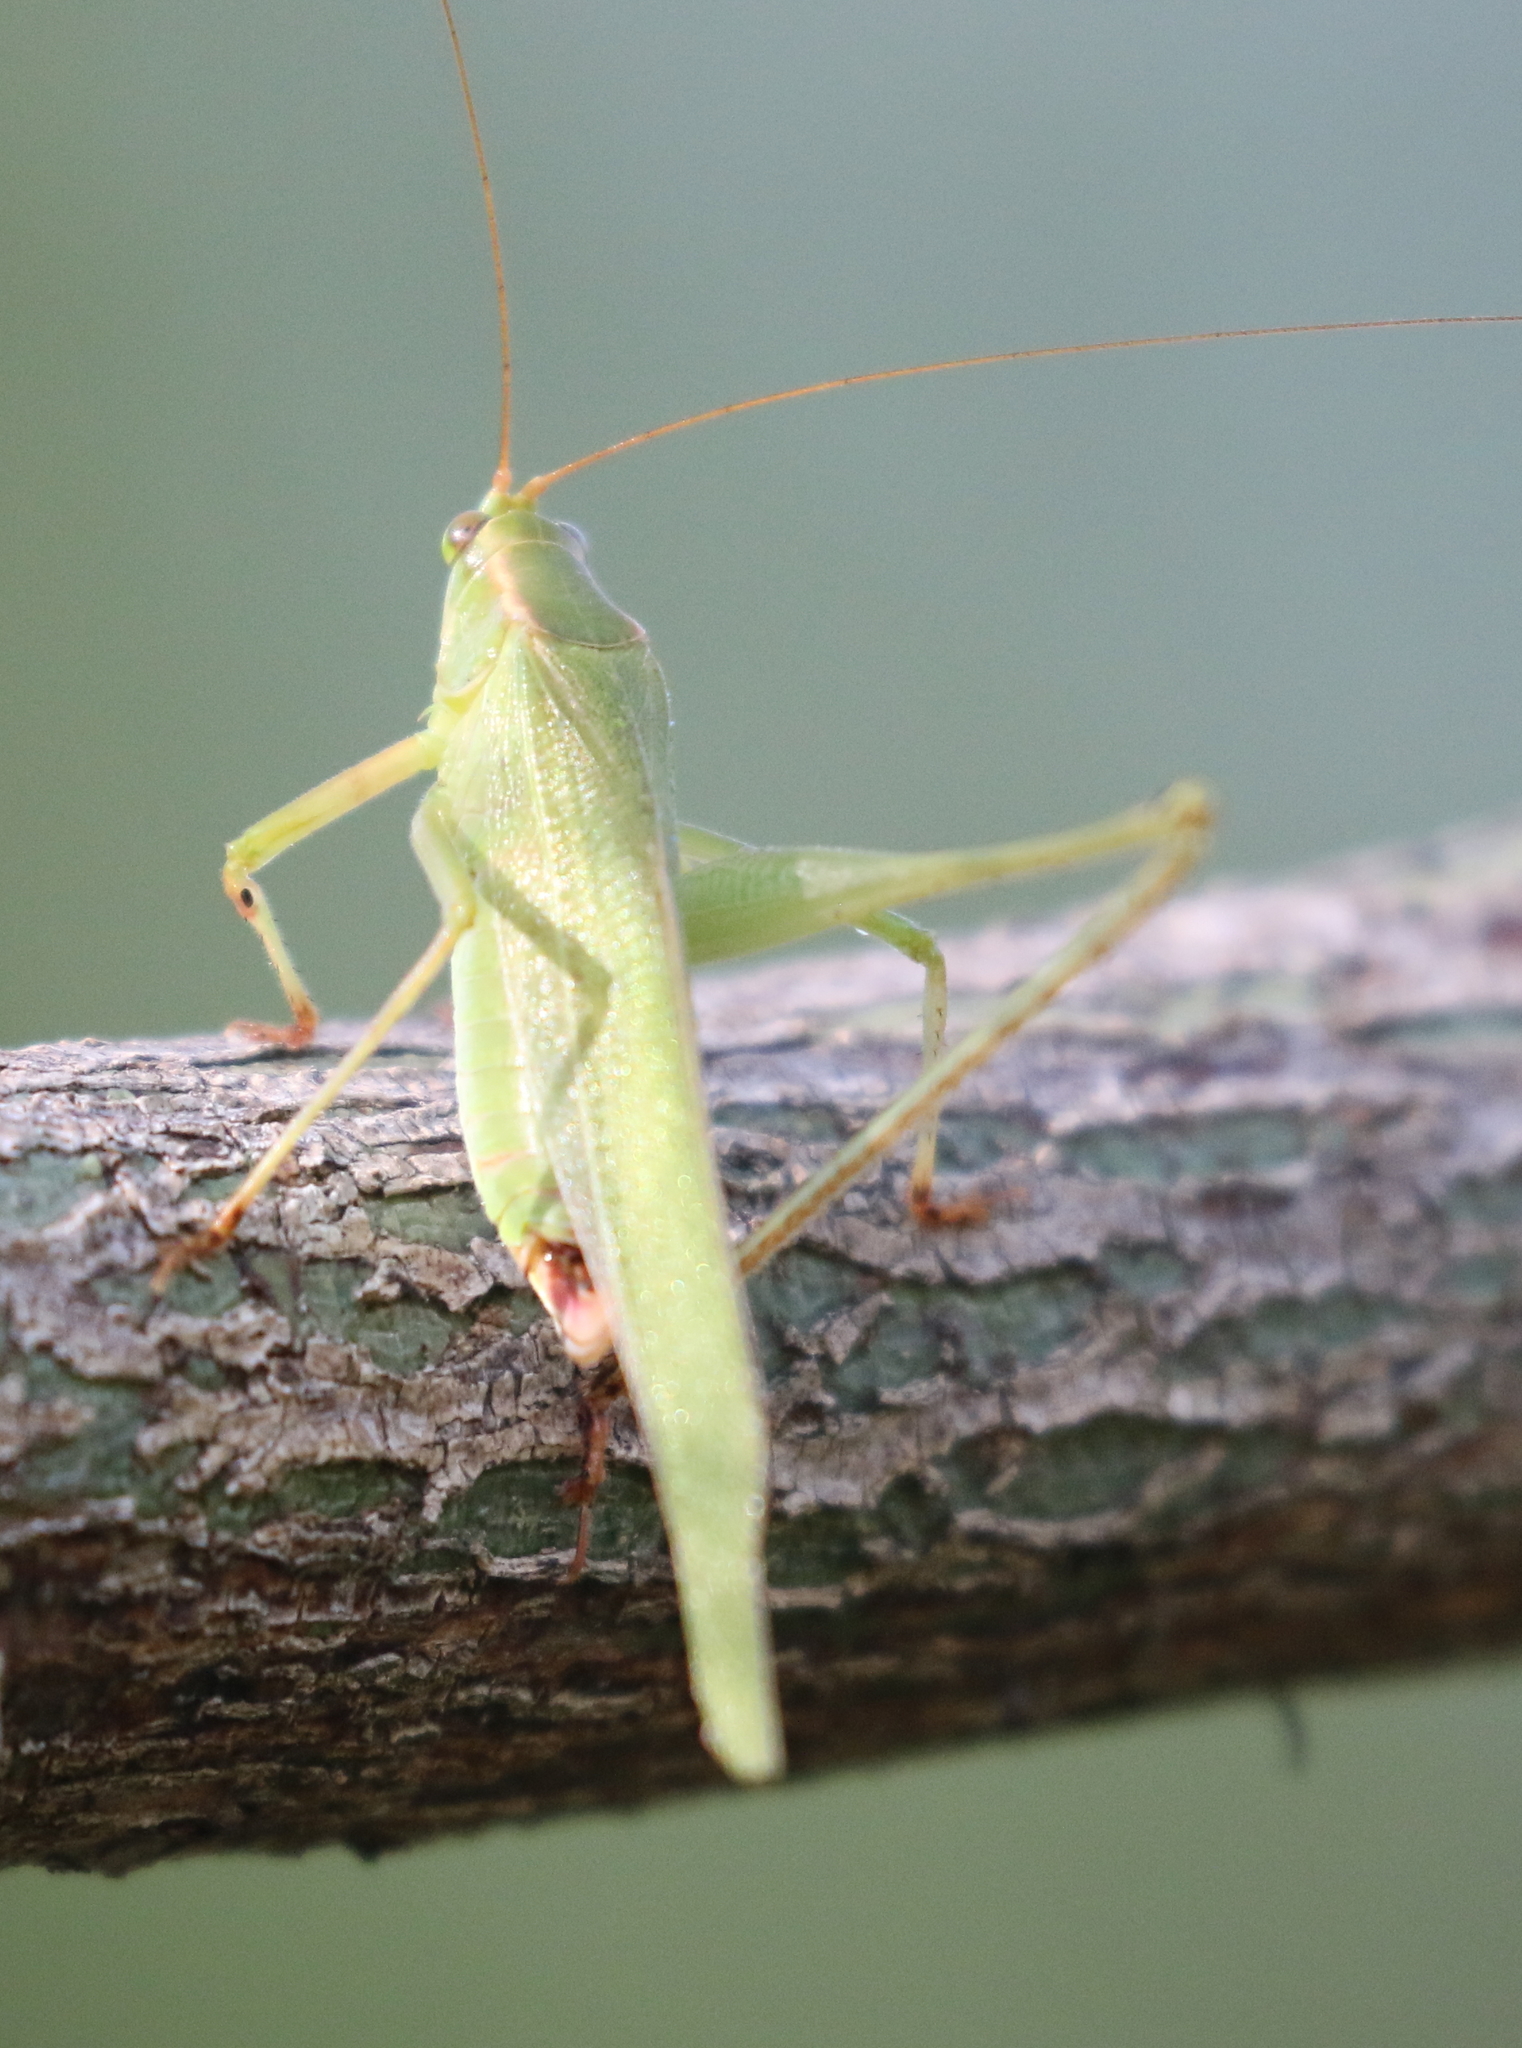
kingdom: Animalia
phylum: Arthropoda
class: Insecta
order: Orthoptera
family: Tettigoniidae
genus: Scudderia
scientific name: Scudderia furcata
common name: Fork-tailed bush katydid
